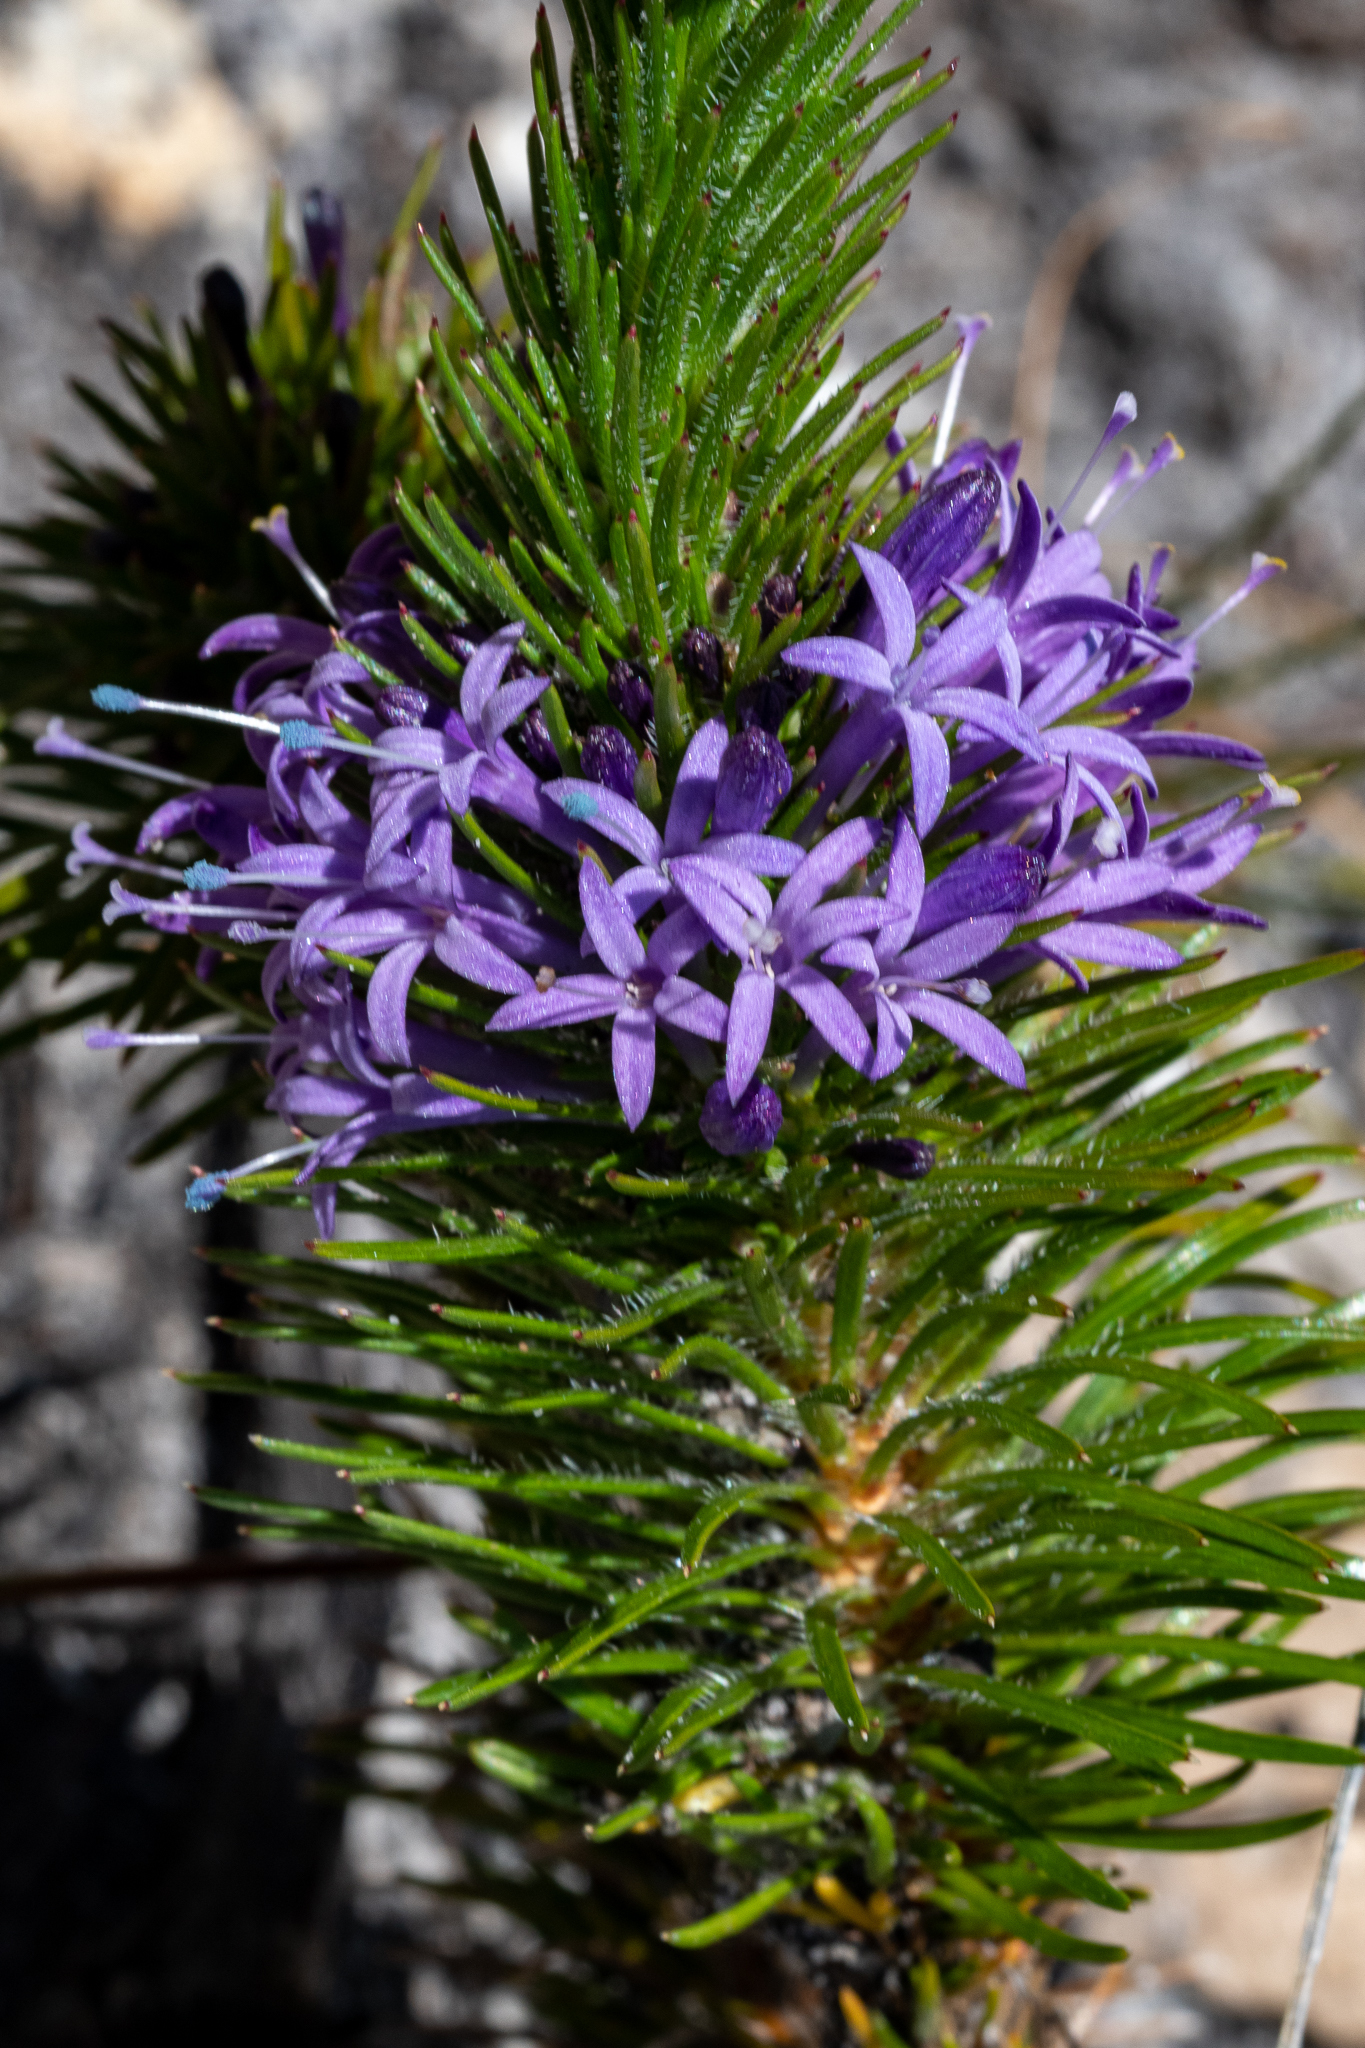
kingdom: Plantae
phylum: Tracheophyta
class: Magnoliopsida
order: Asterales
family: Campanulaceae
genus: Merciera
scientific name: Merciera azurea
